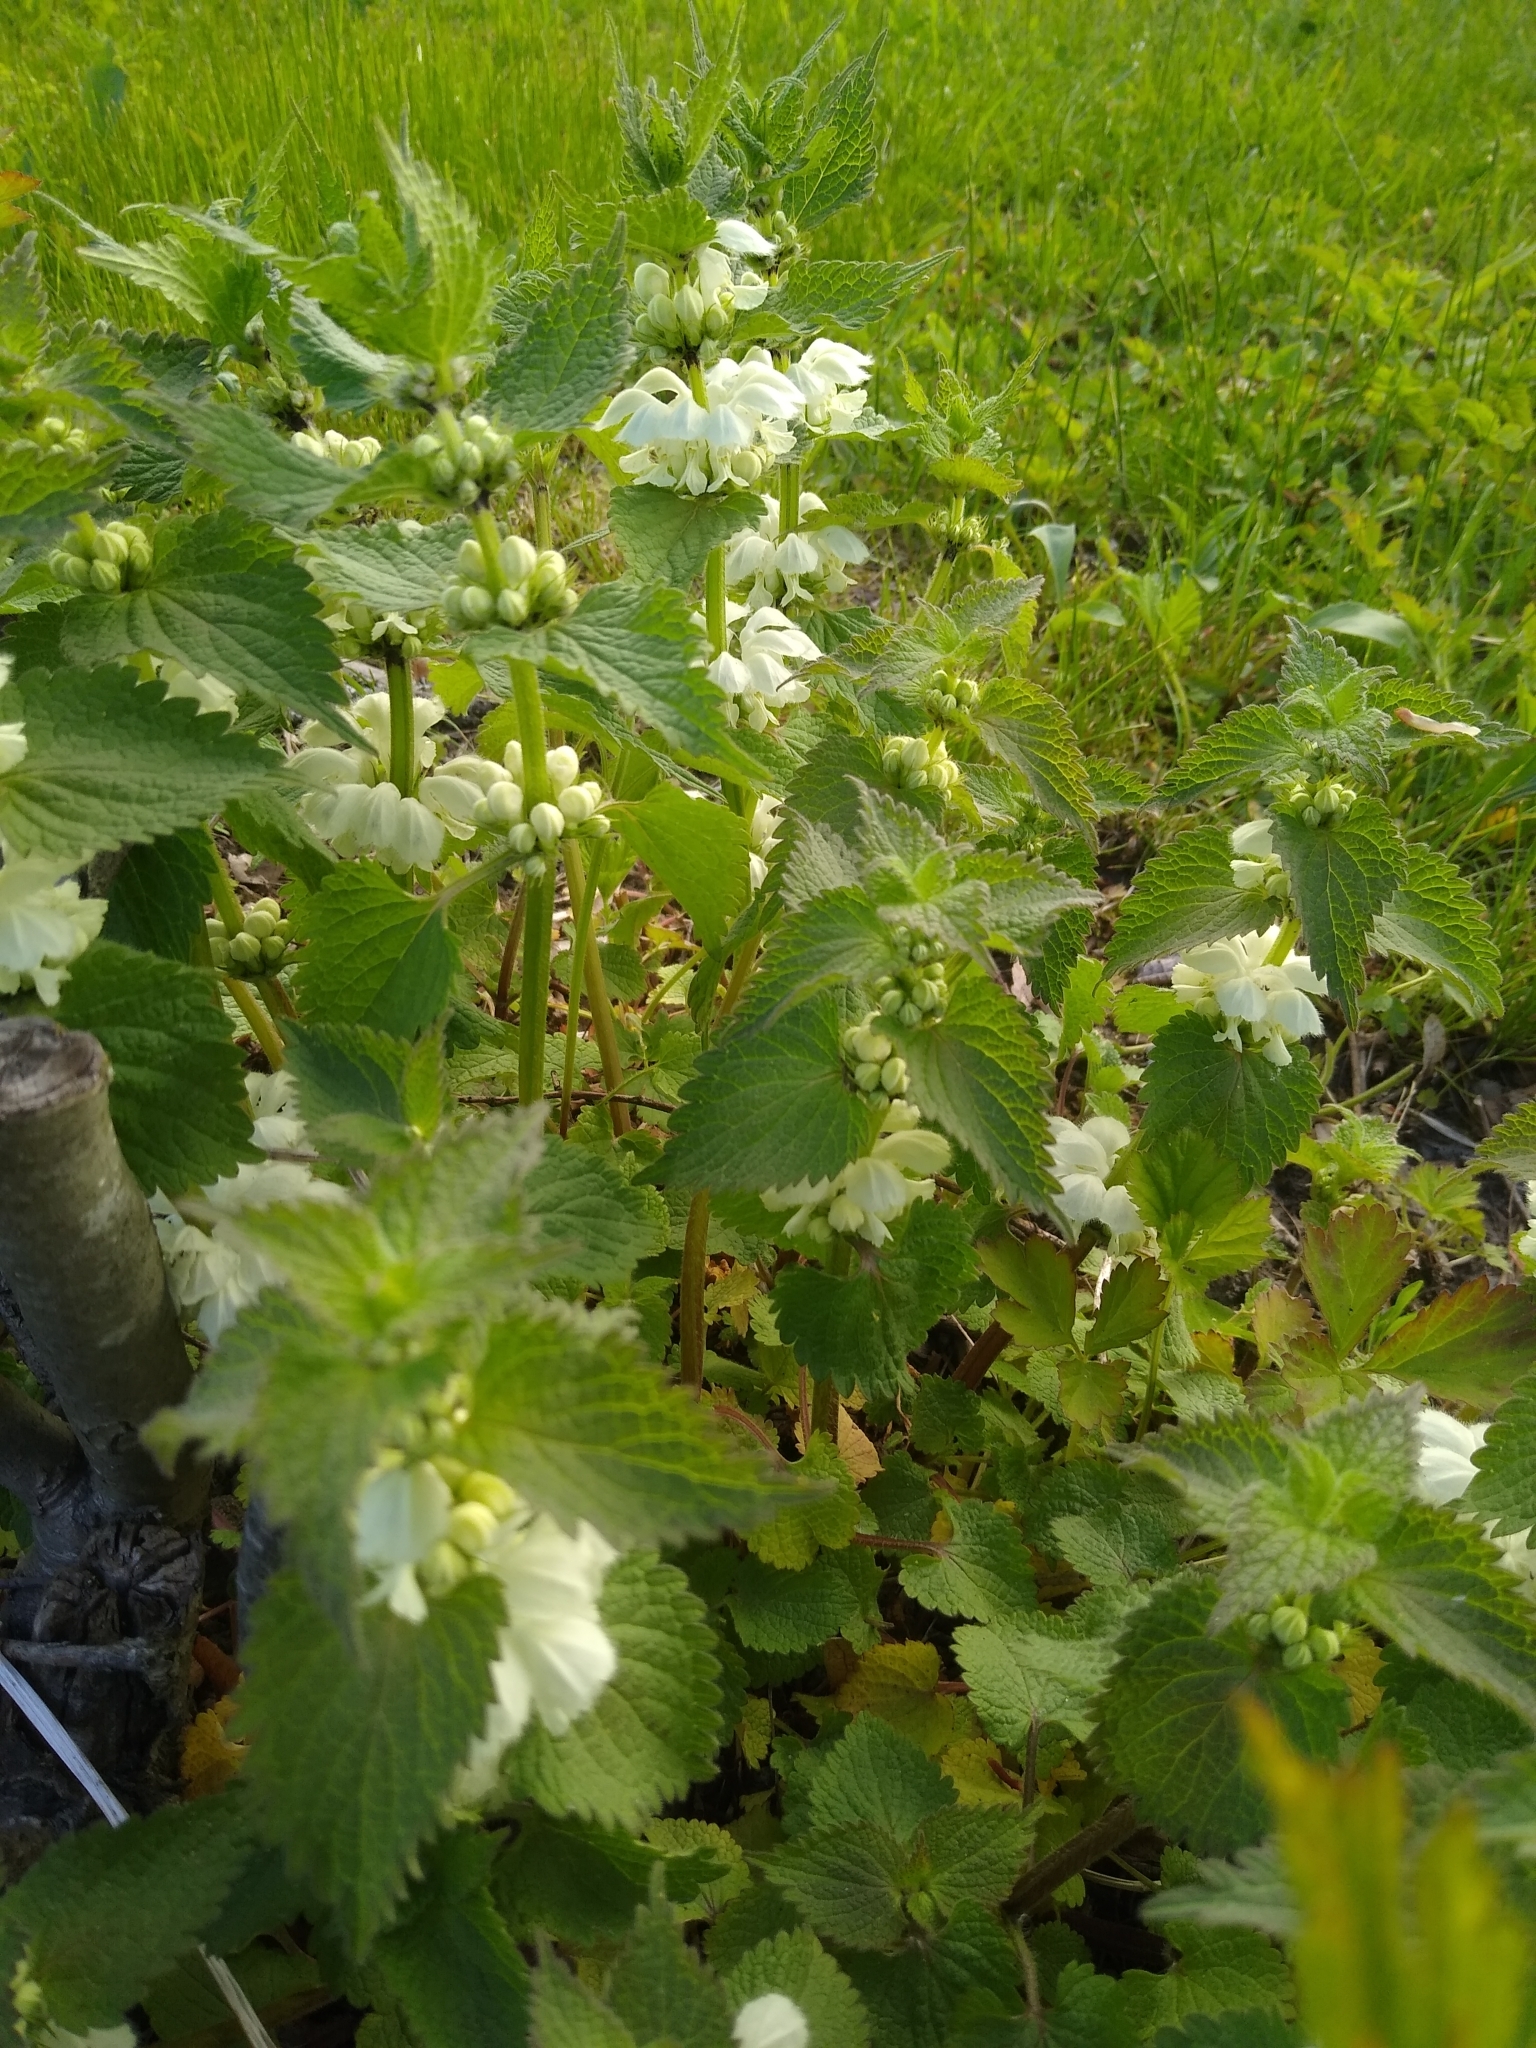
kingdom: Plantae
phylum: Tracheophyta
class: Magnoliopsida
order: Lamiales
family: Lamiaceae
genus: Lamium
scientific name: Lamium album
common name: White dead-nettle
